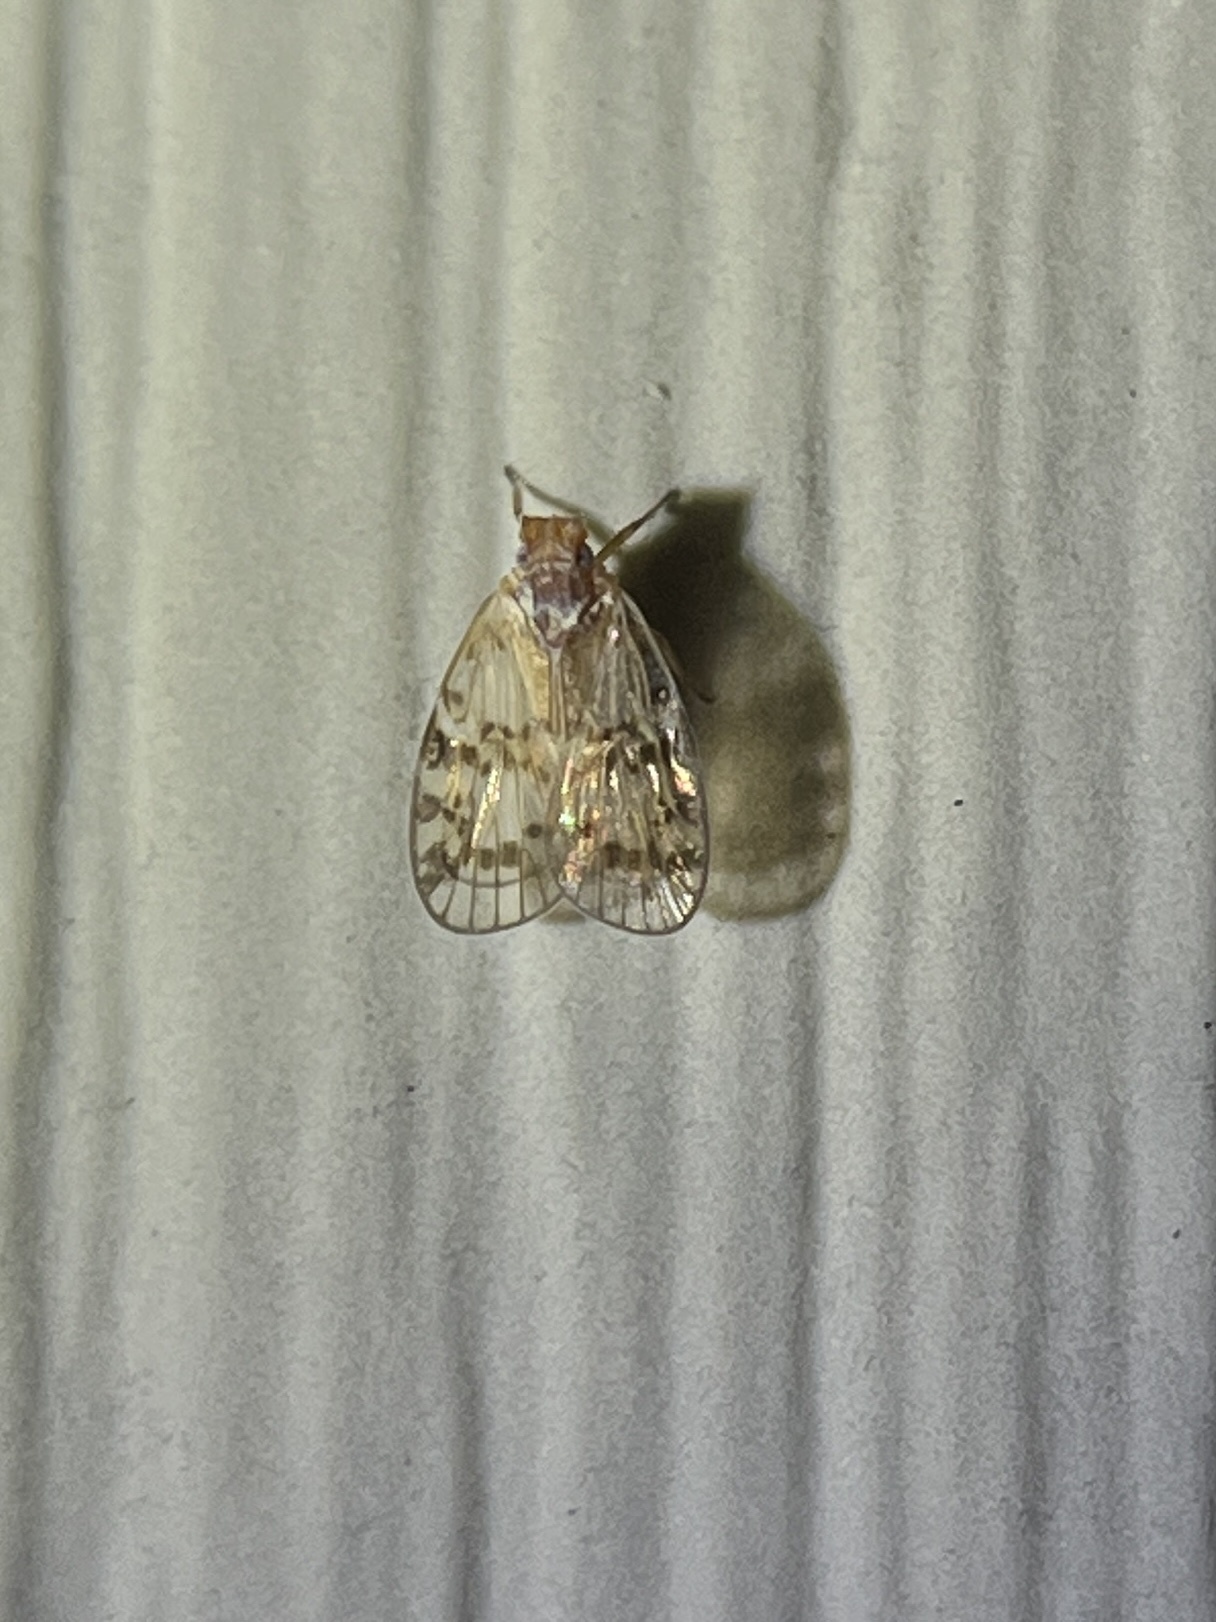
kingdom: Animalia
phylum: Arthropoda
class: Insecta
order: Hemiptera
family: Cixiidae
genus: Bothriocera
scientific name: Bothriocera drakei
